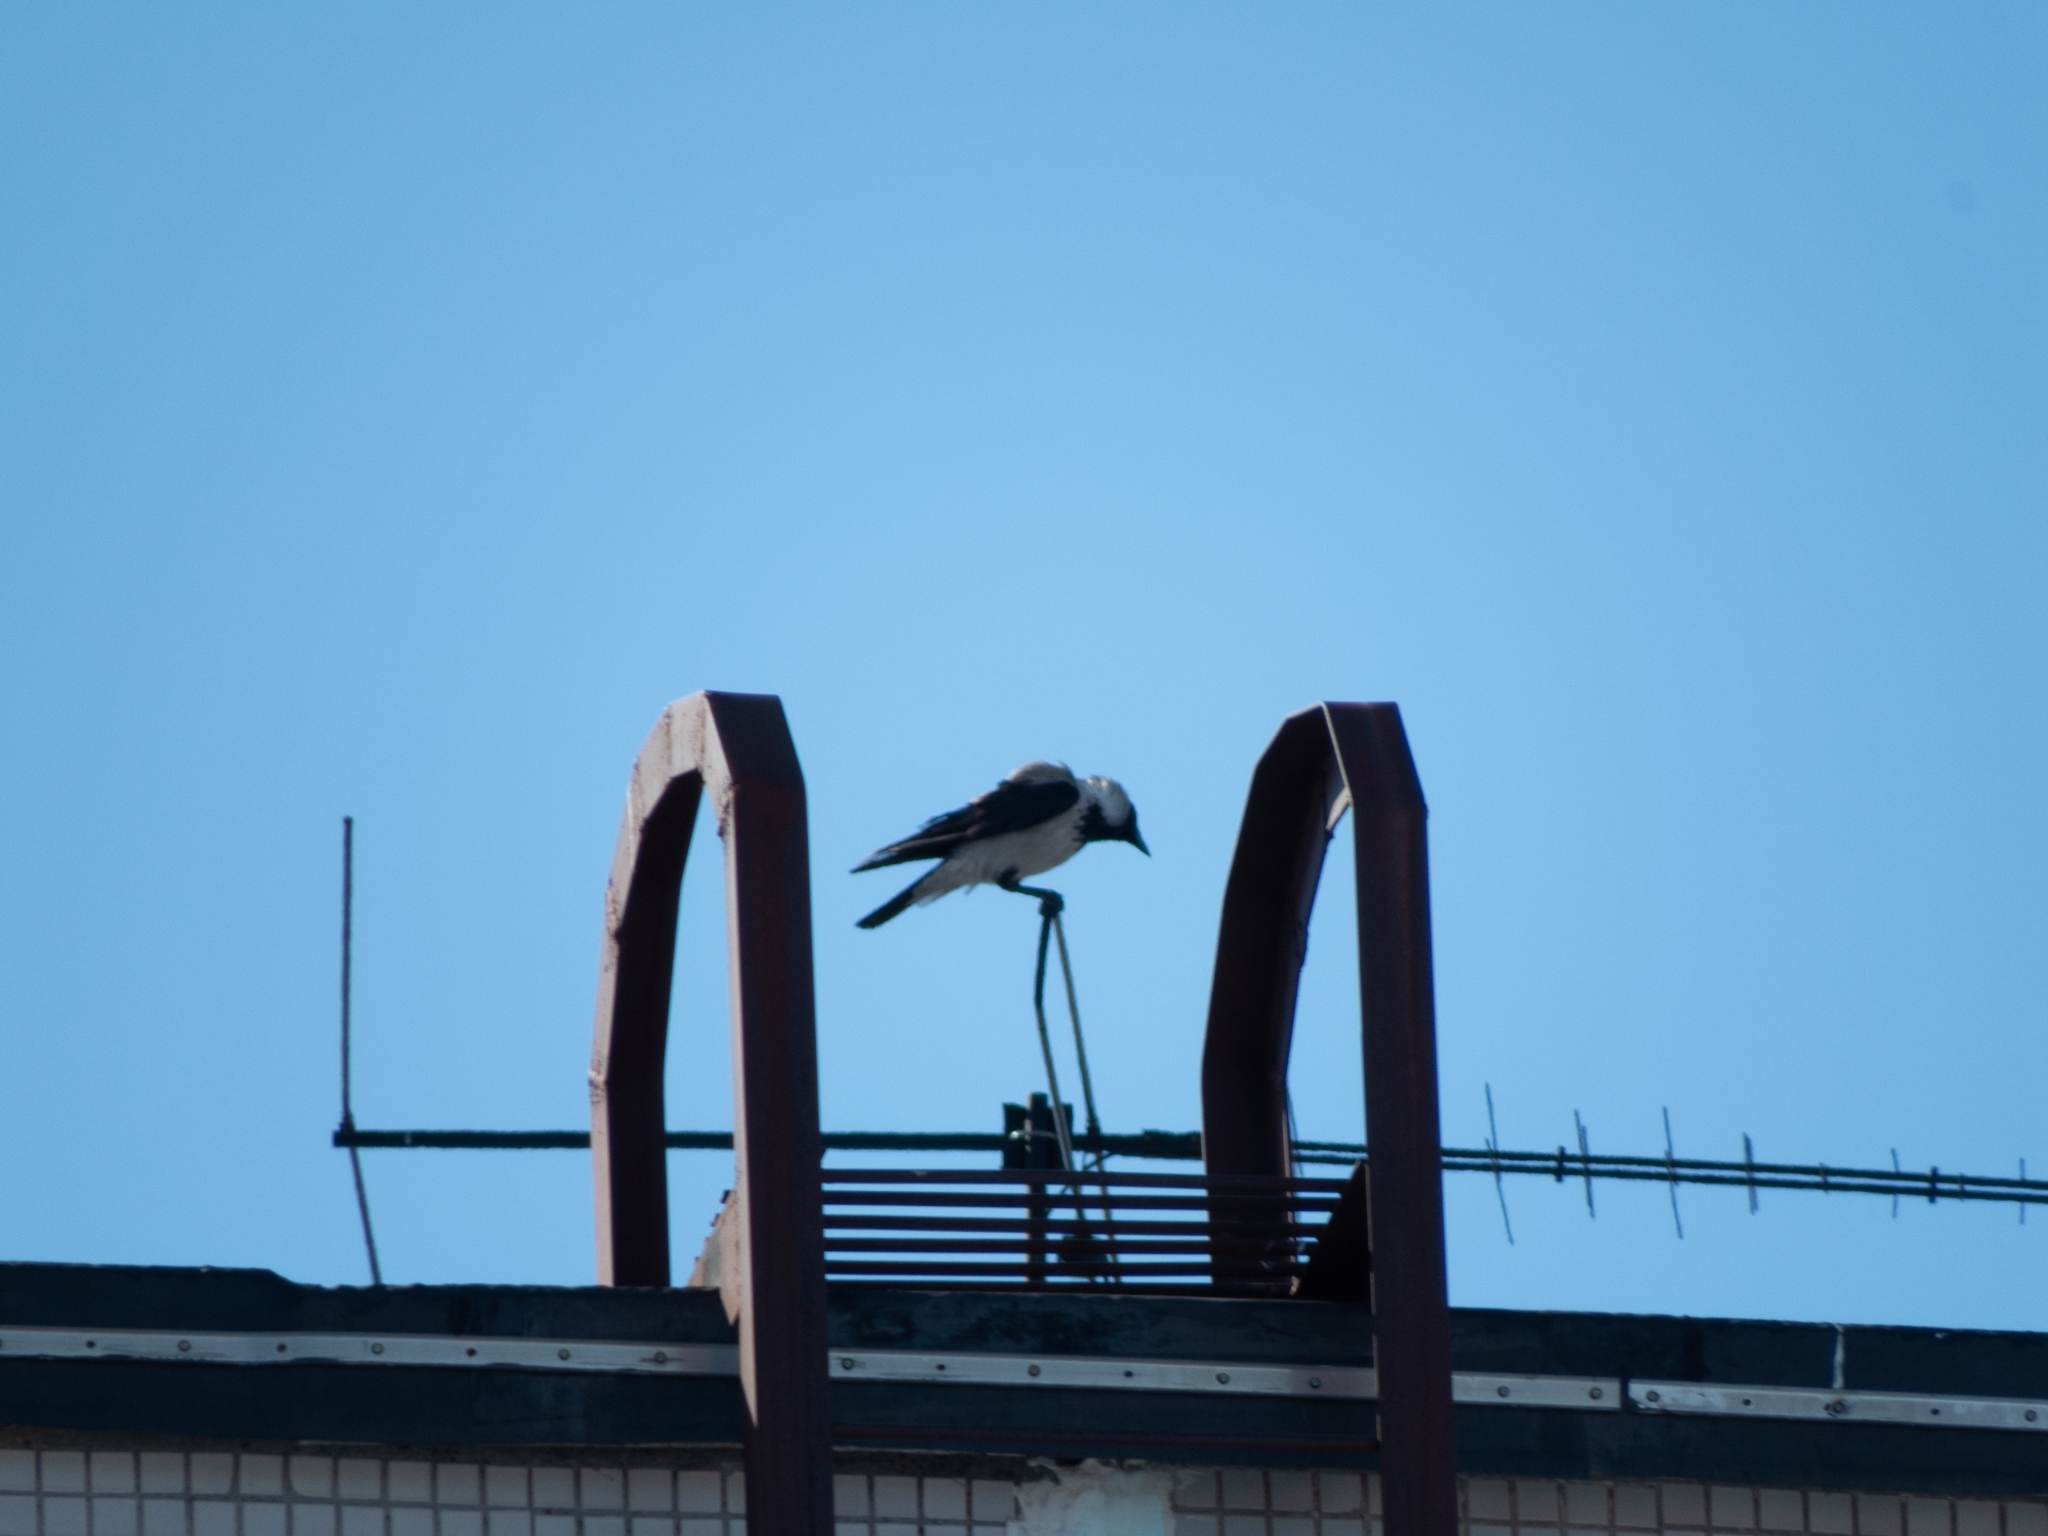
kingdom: Animalia
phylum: Chordata
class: Aves
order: Passeriformes
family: Corvidae
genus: Corvus
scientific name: Corvus cornix
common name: Hooded crow
